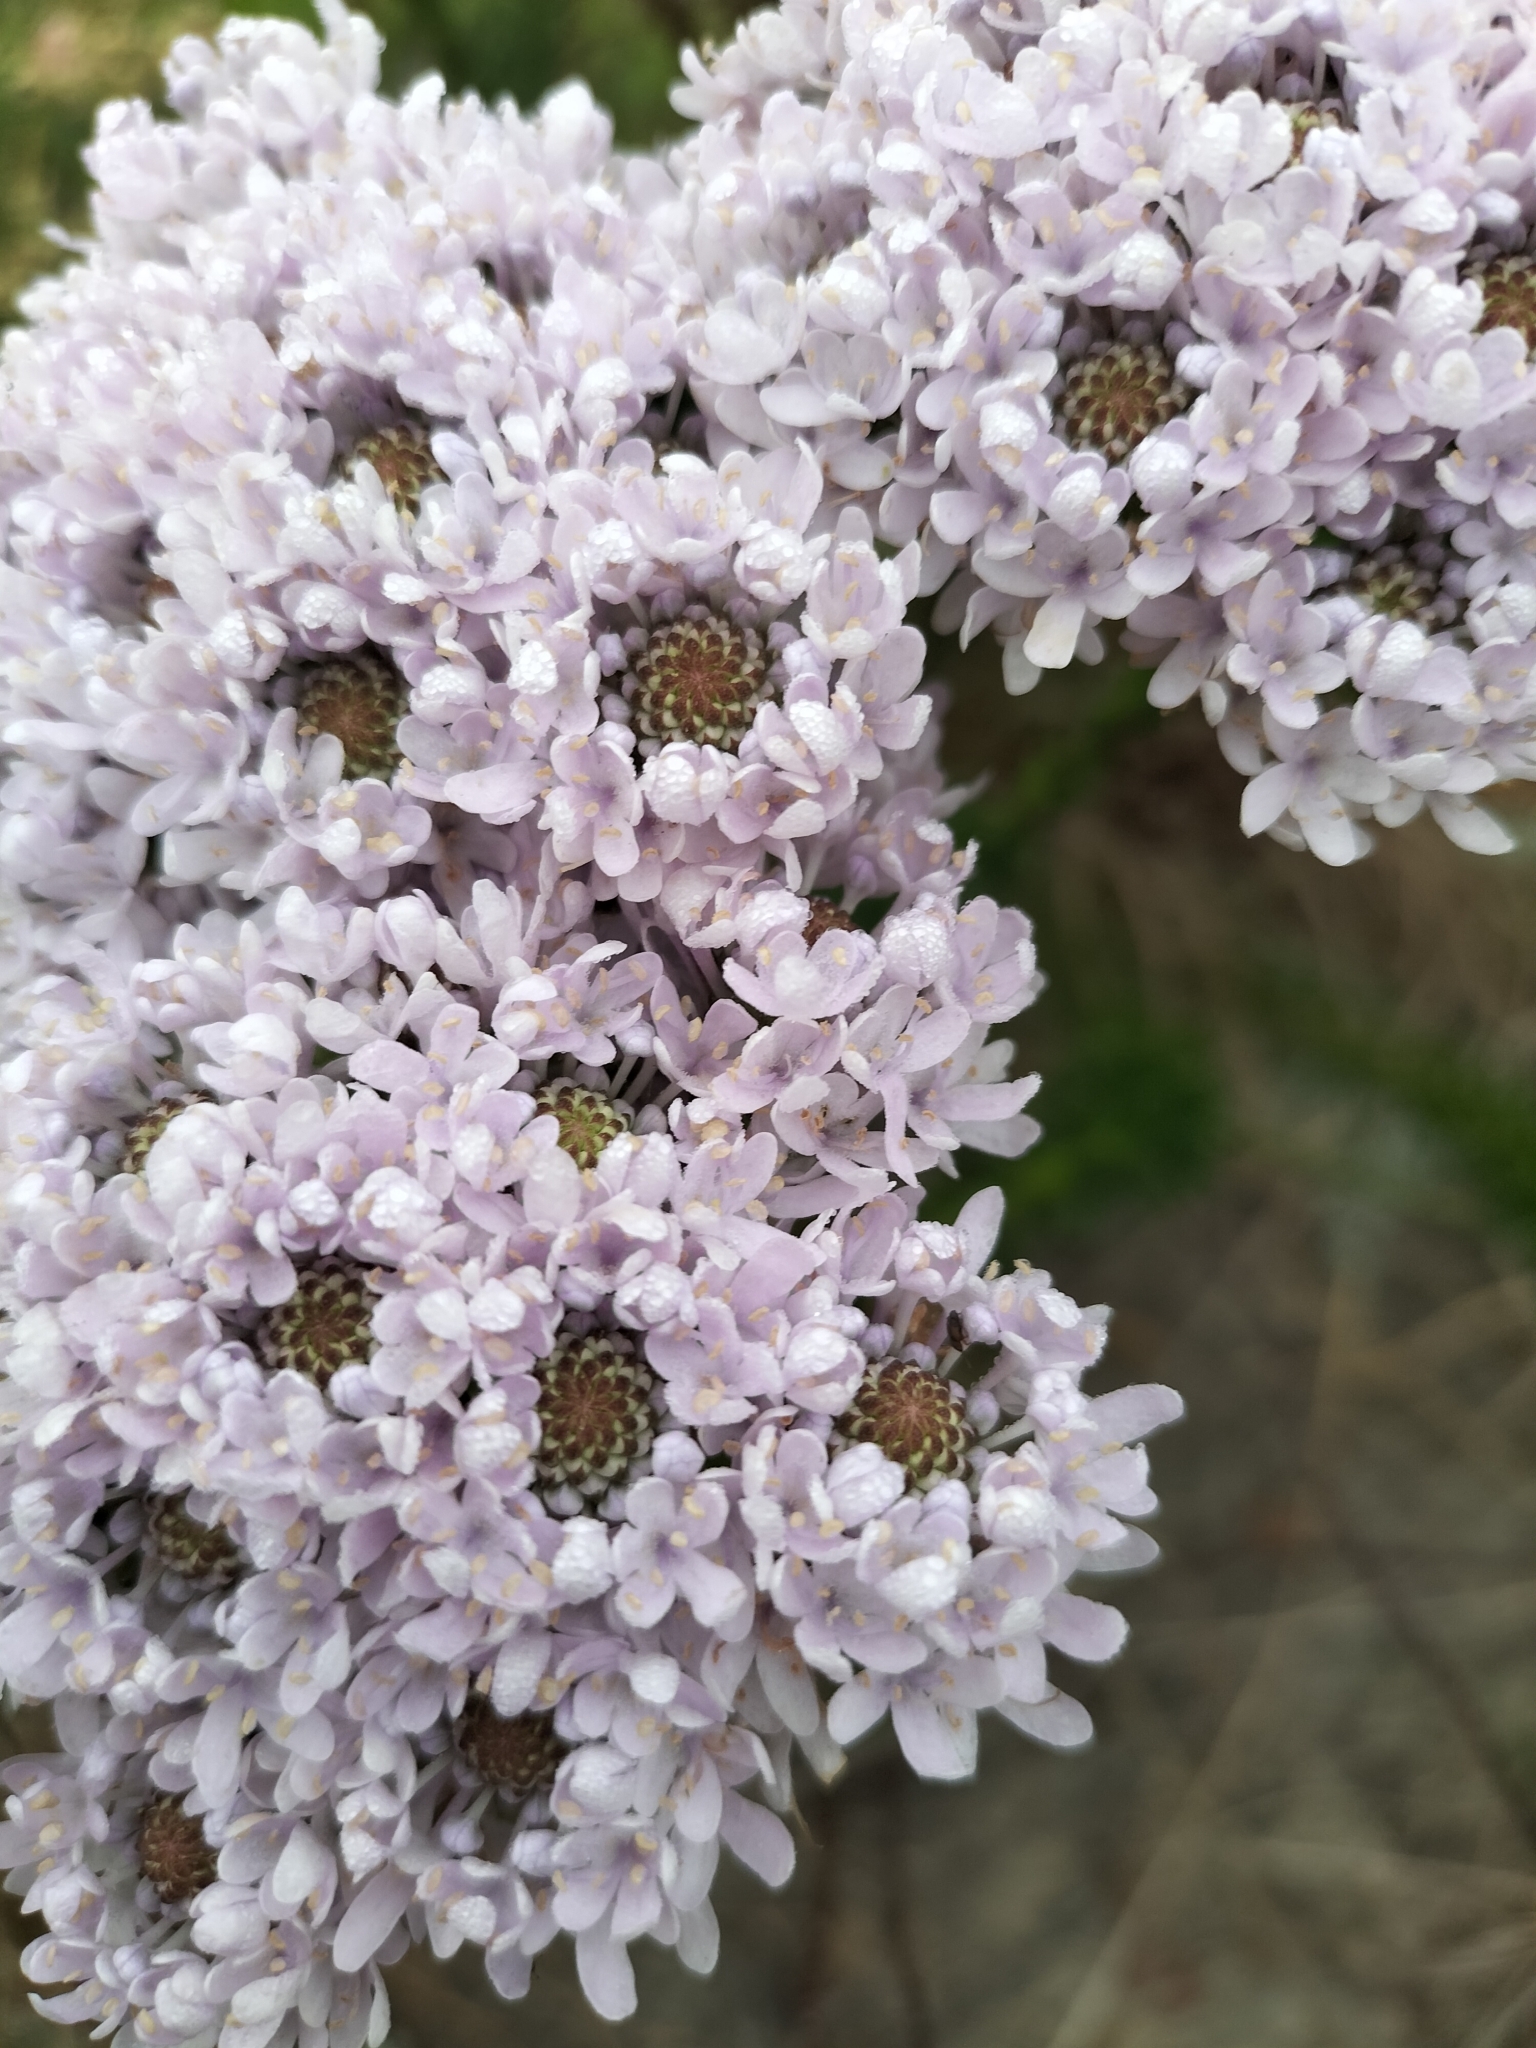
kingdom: Plantae
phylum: Tracheophyta
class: Magnoliopsida
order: Lamiales
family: Scrophulariaceae
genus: Pseudoselago
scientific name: Pseudoselago spuria
